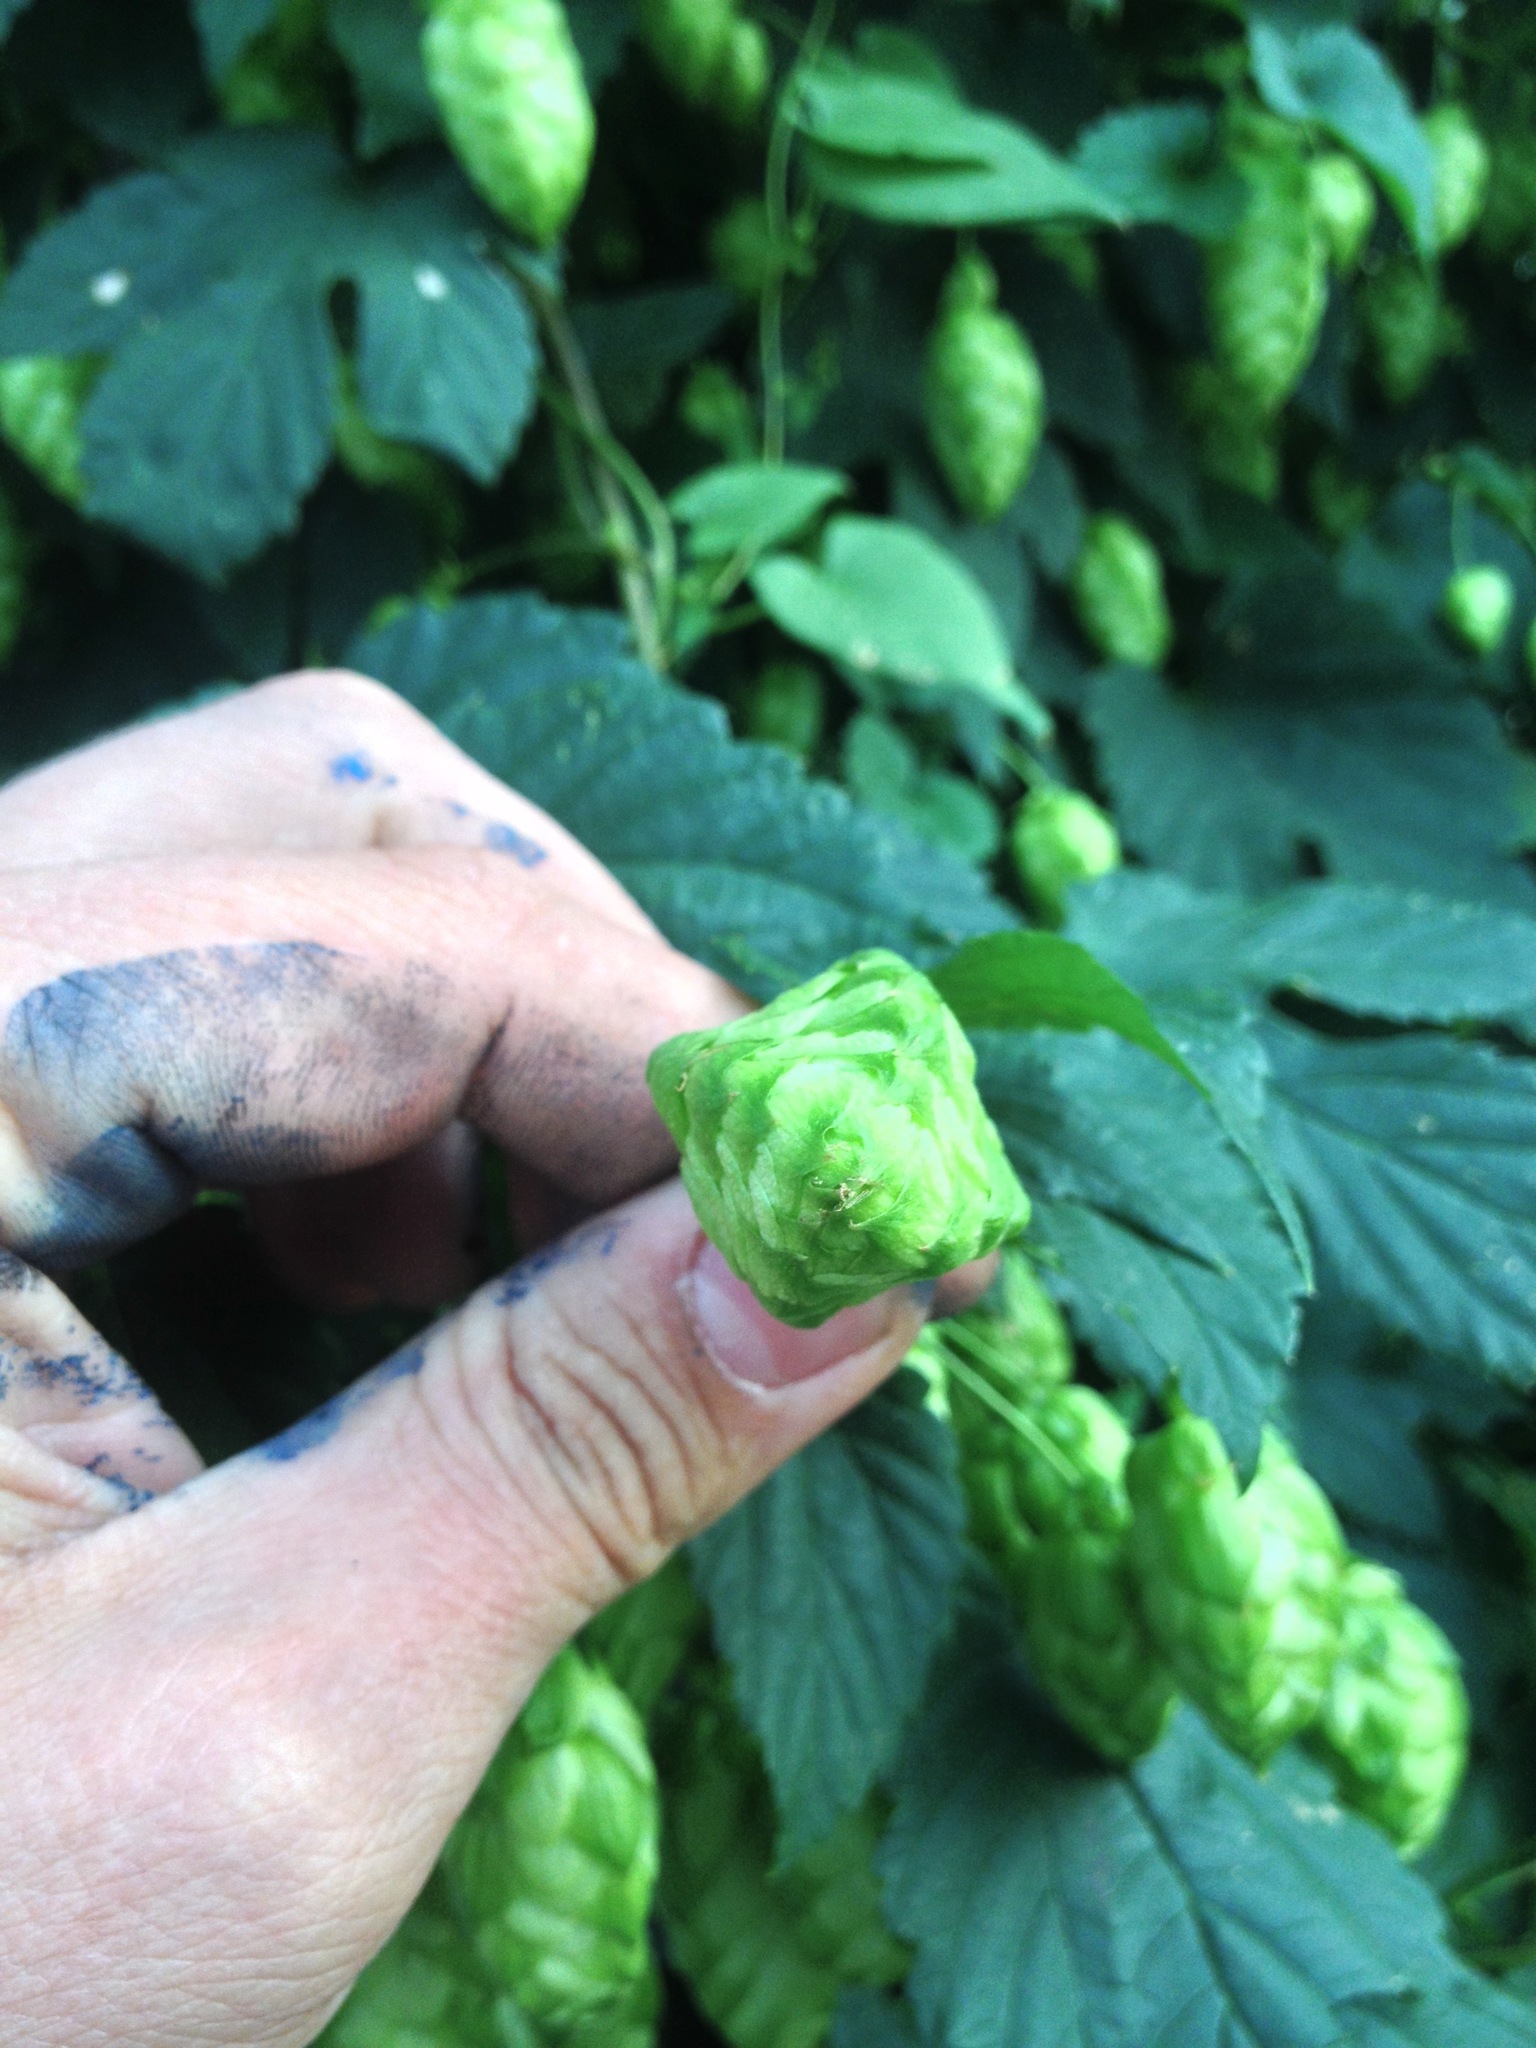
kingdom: Plantae
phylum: Tracheophyta
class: Magnoliopsida
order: Rosales
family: Cannabaceae
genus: Humulus
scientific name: Humulus lupulus
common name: Hop
